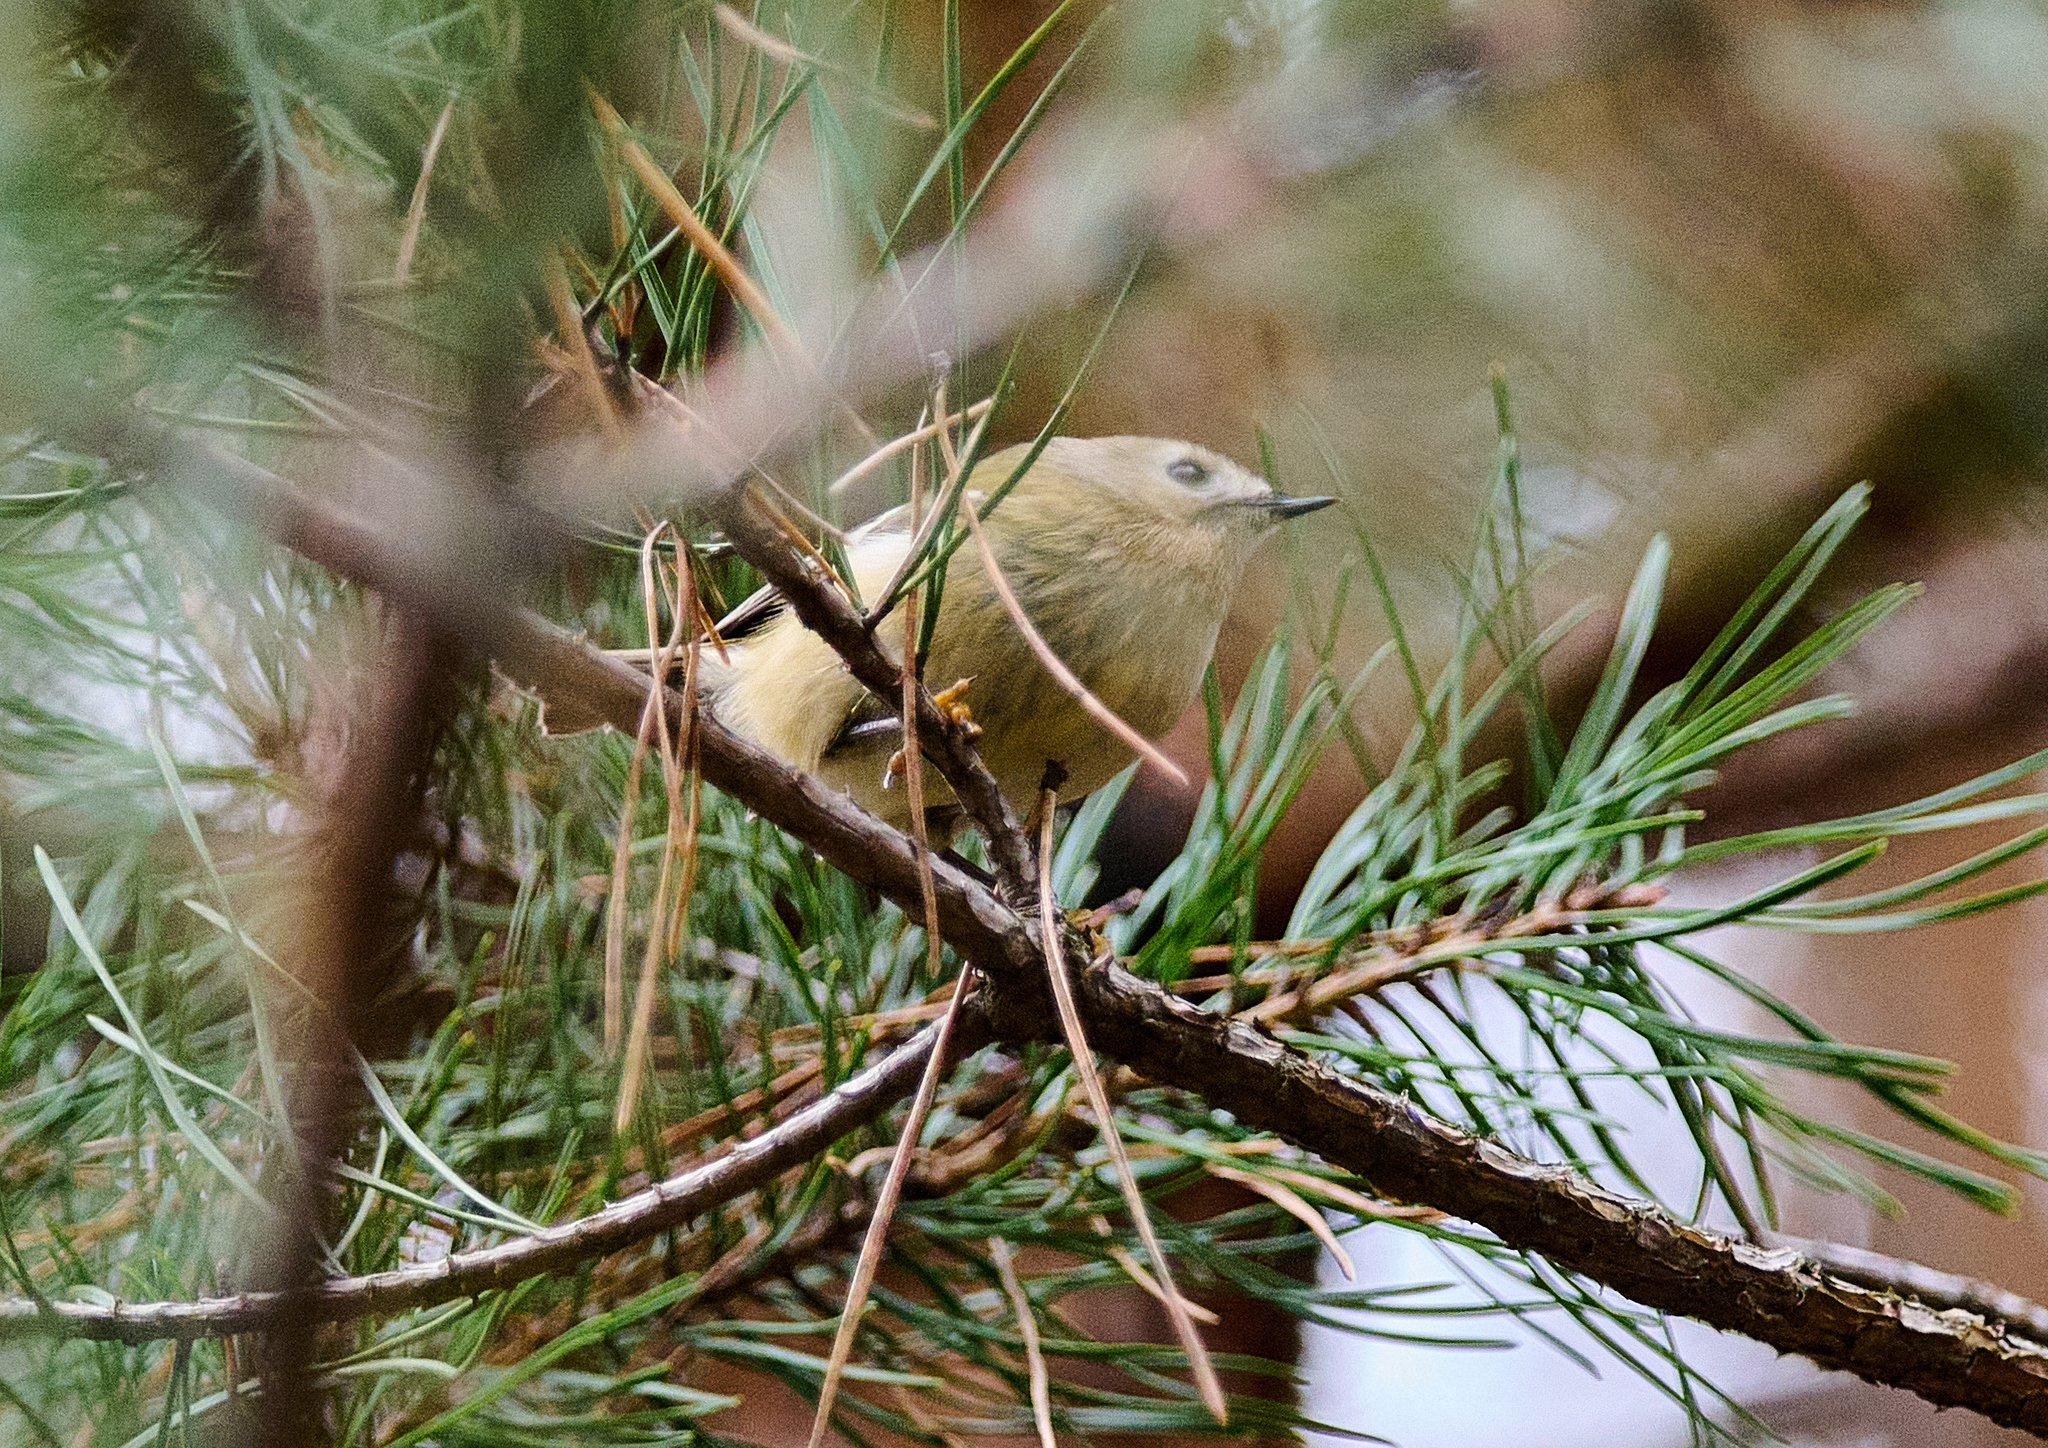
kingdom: Animalia
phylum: Chordata
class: Aves
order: Passeriformes
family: Regulidae
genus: Regulus
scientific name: Regulus regulus
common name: Goldcrest
